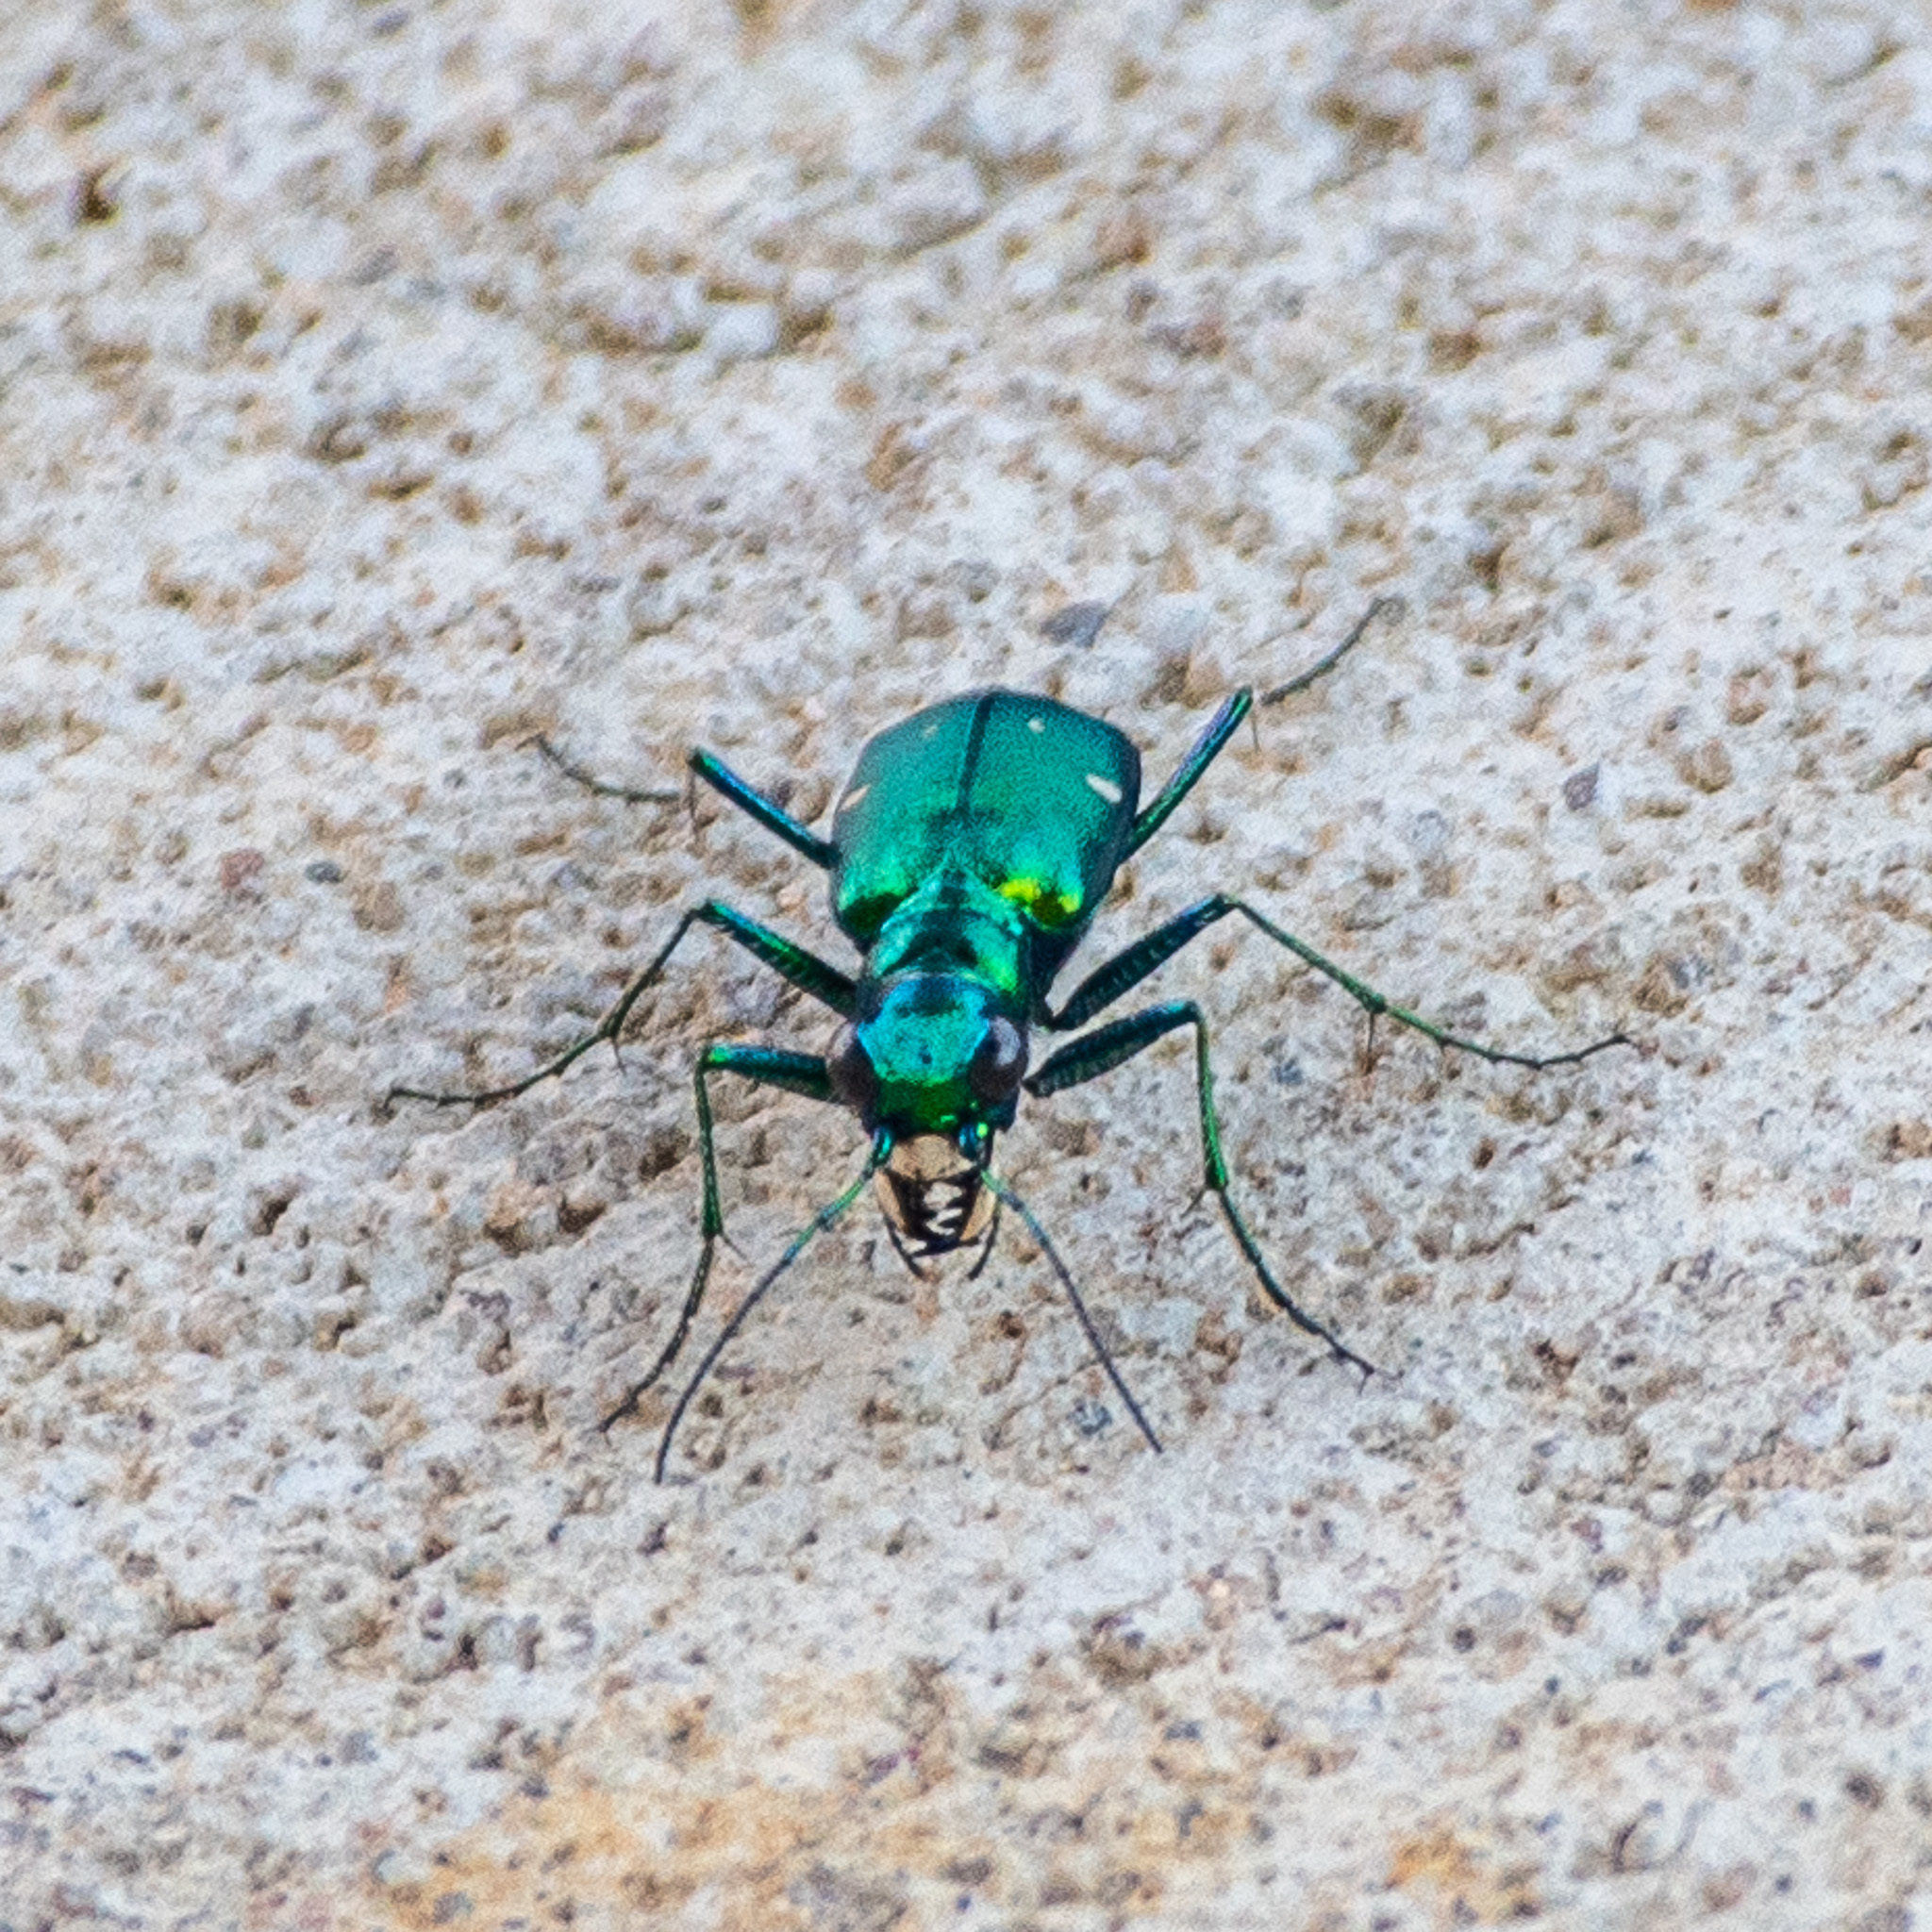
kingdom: Animalia
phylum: Arthropoda
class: Insecta
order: Coleoptera
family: Carabidae
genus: Cicindela
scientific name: Cicindela sexguttata
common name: Six-spotted tiger beetle
